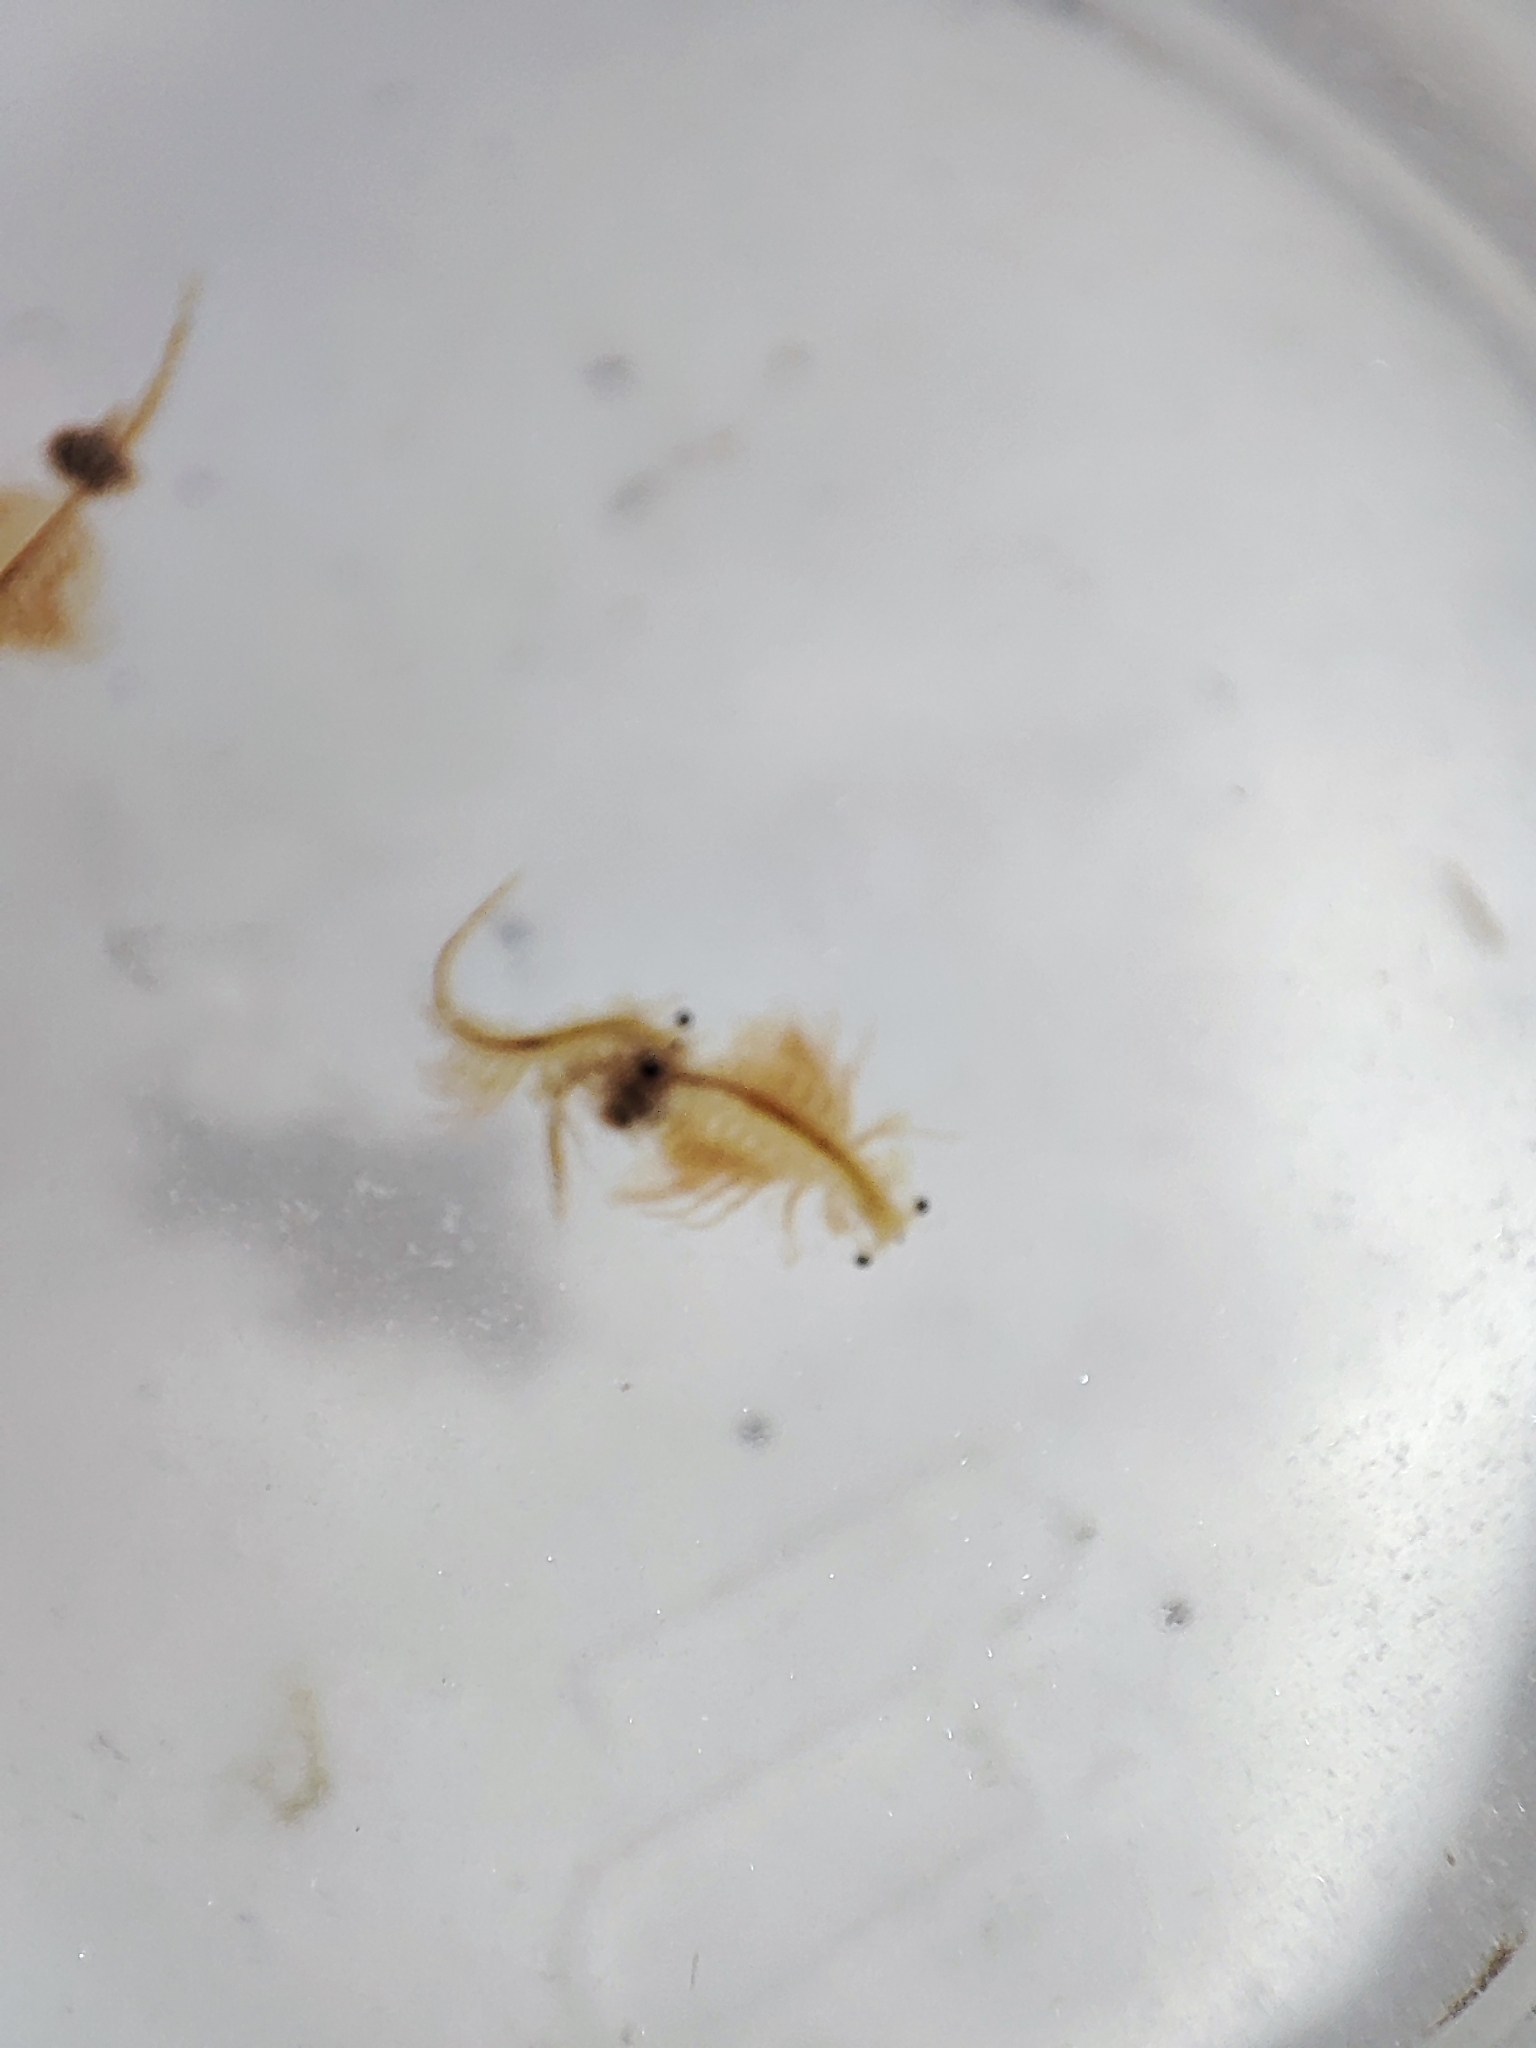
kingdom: Animalia
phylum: Arthropoda
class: Branchiopoda
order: Anostraca
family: Artemiidae
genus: Artemia
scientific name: Artemia salina
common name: Brine shrimp
